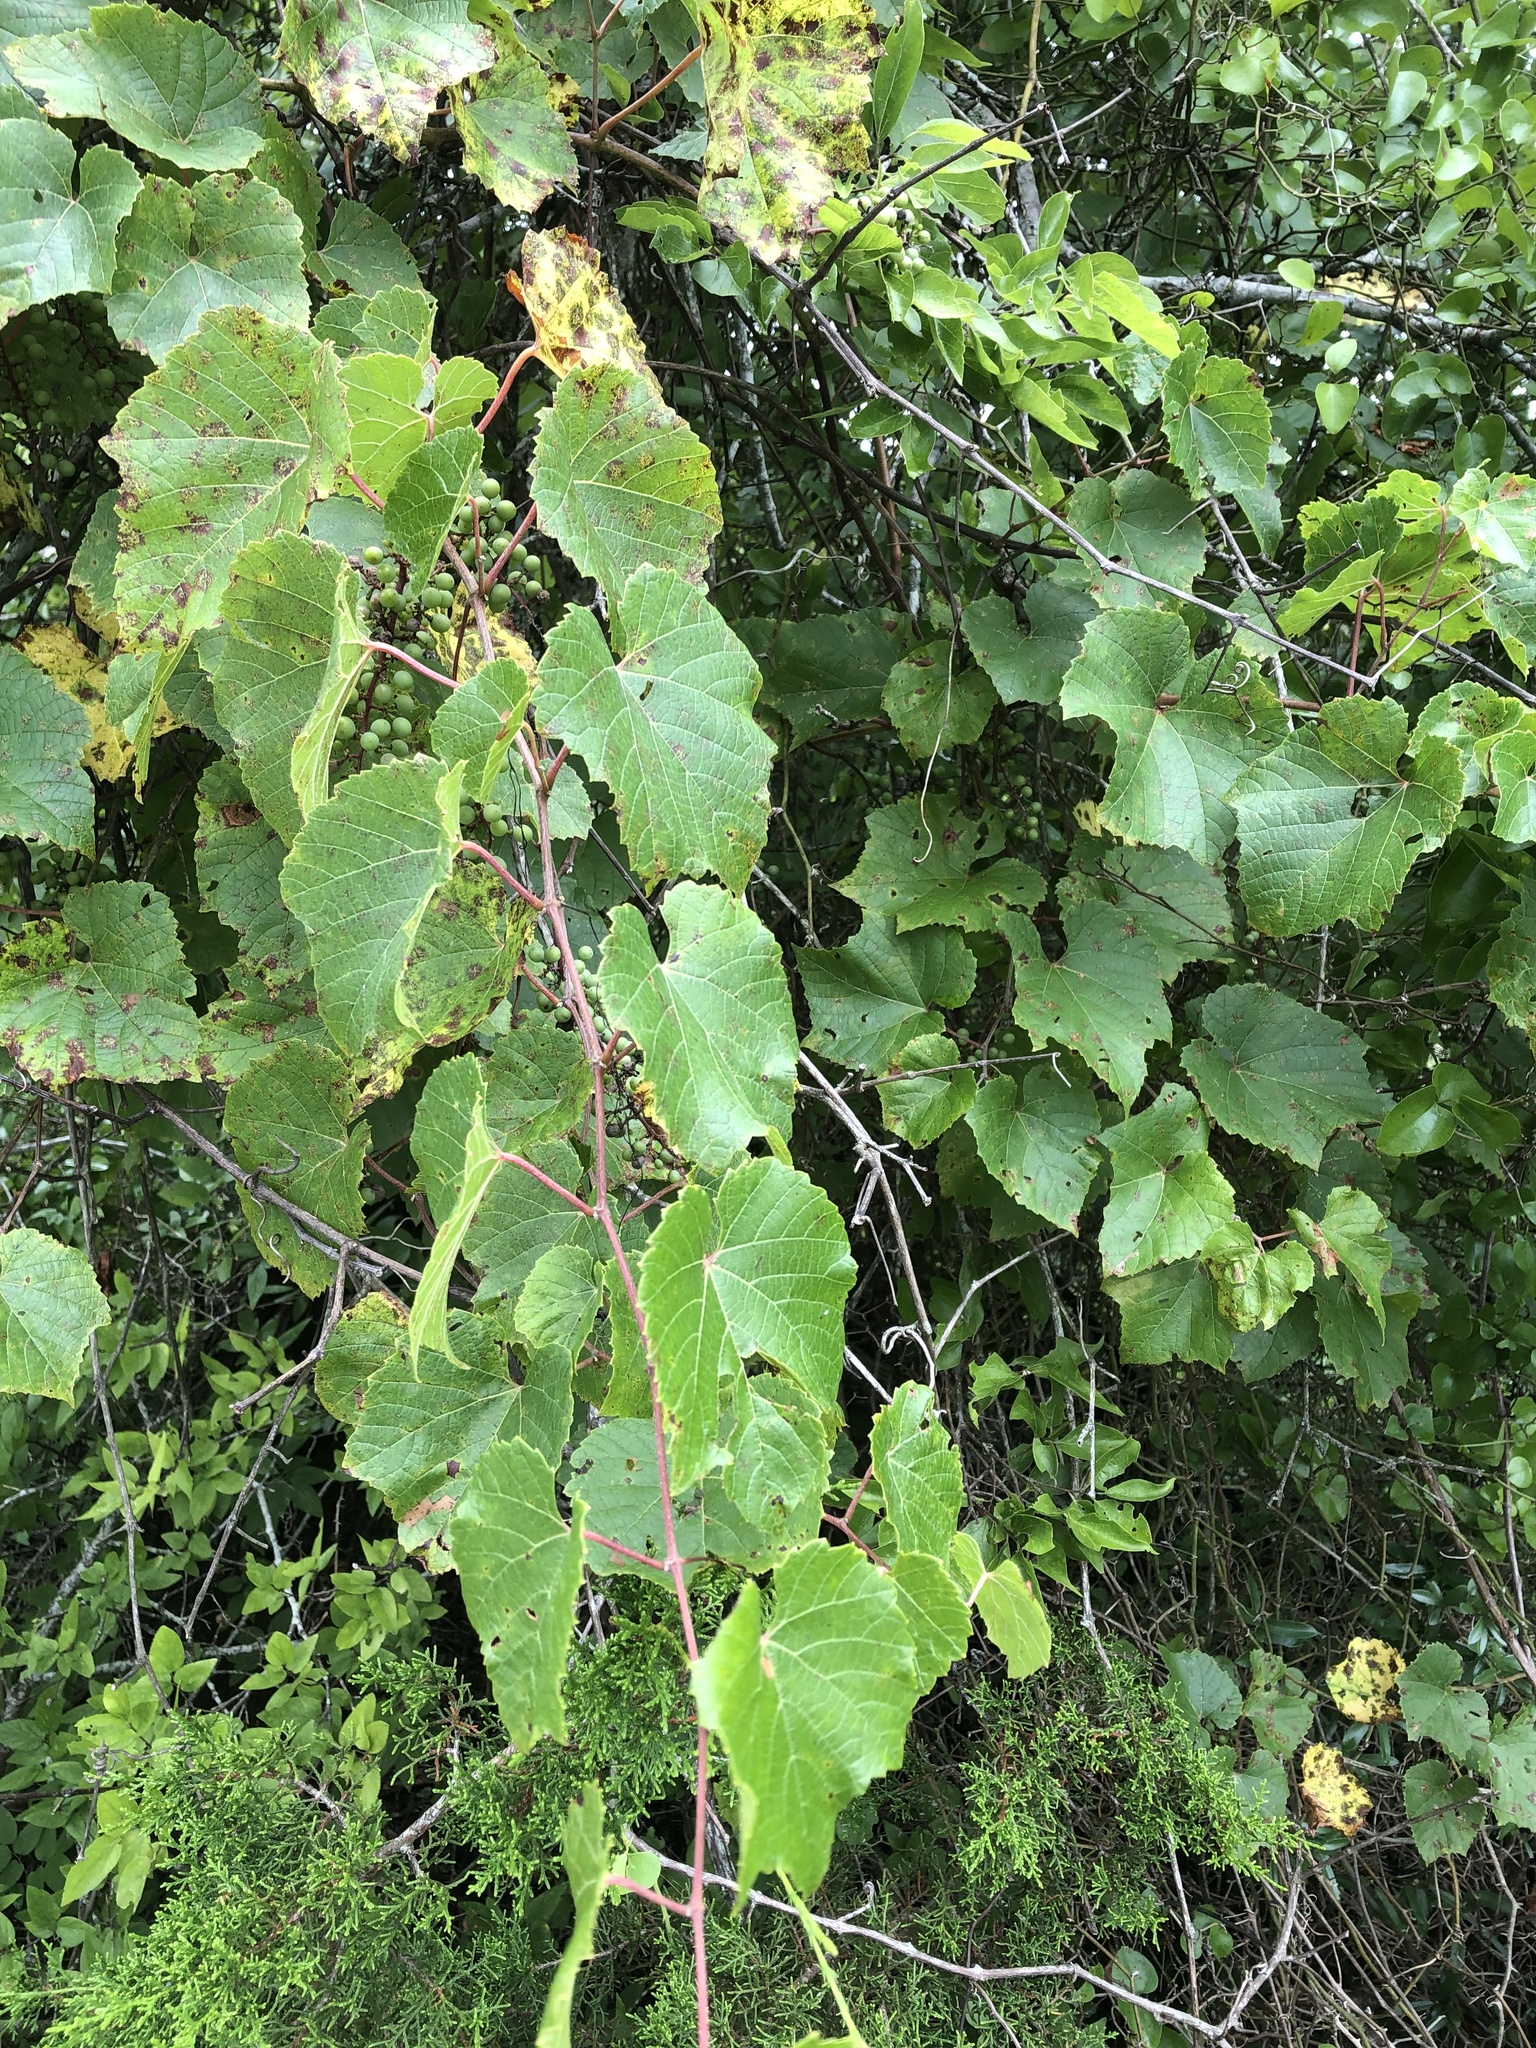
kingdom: Plantae
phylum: Tracheophyta
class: Magnoliopsida
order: Vitales
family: Vitaceae
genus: Vitis
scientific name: Vitis cinerea
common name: Ashy grape
